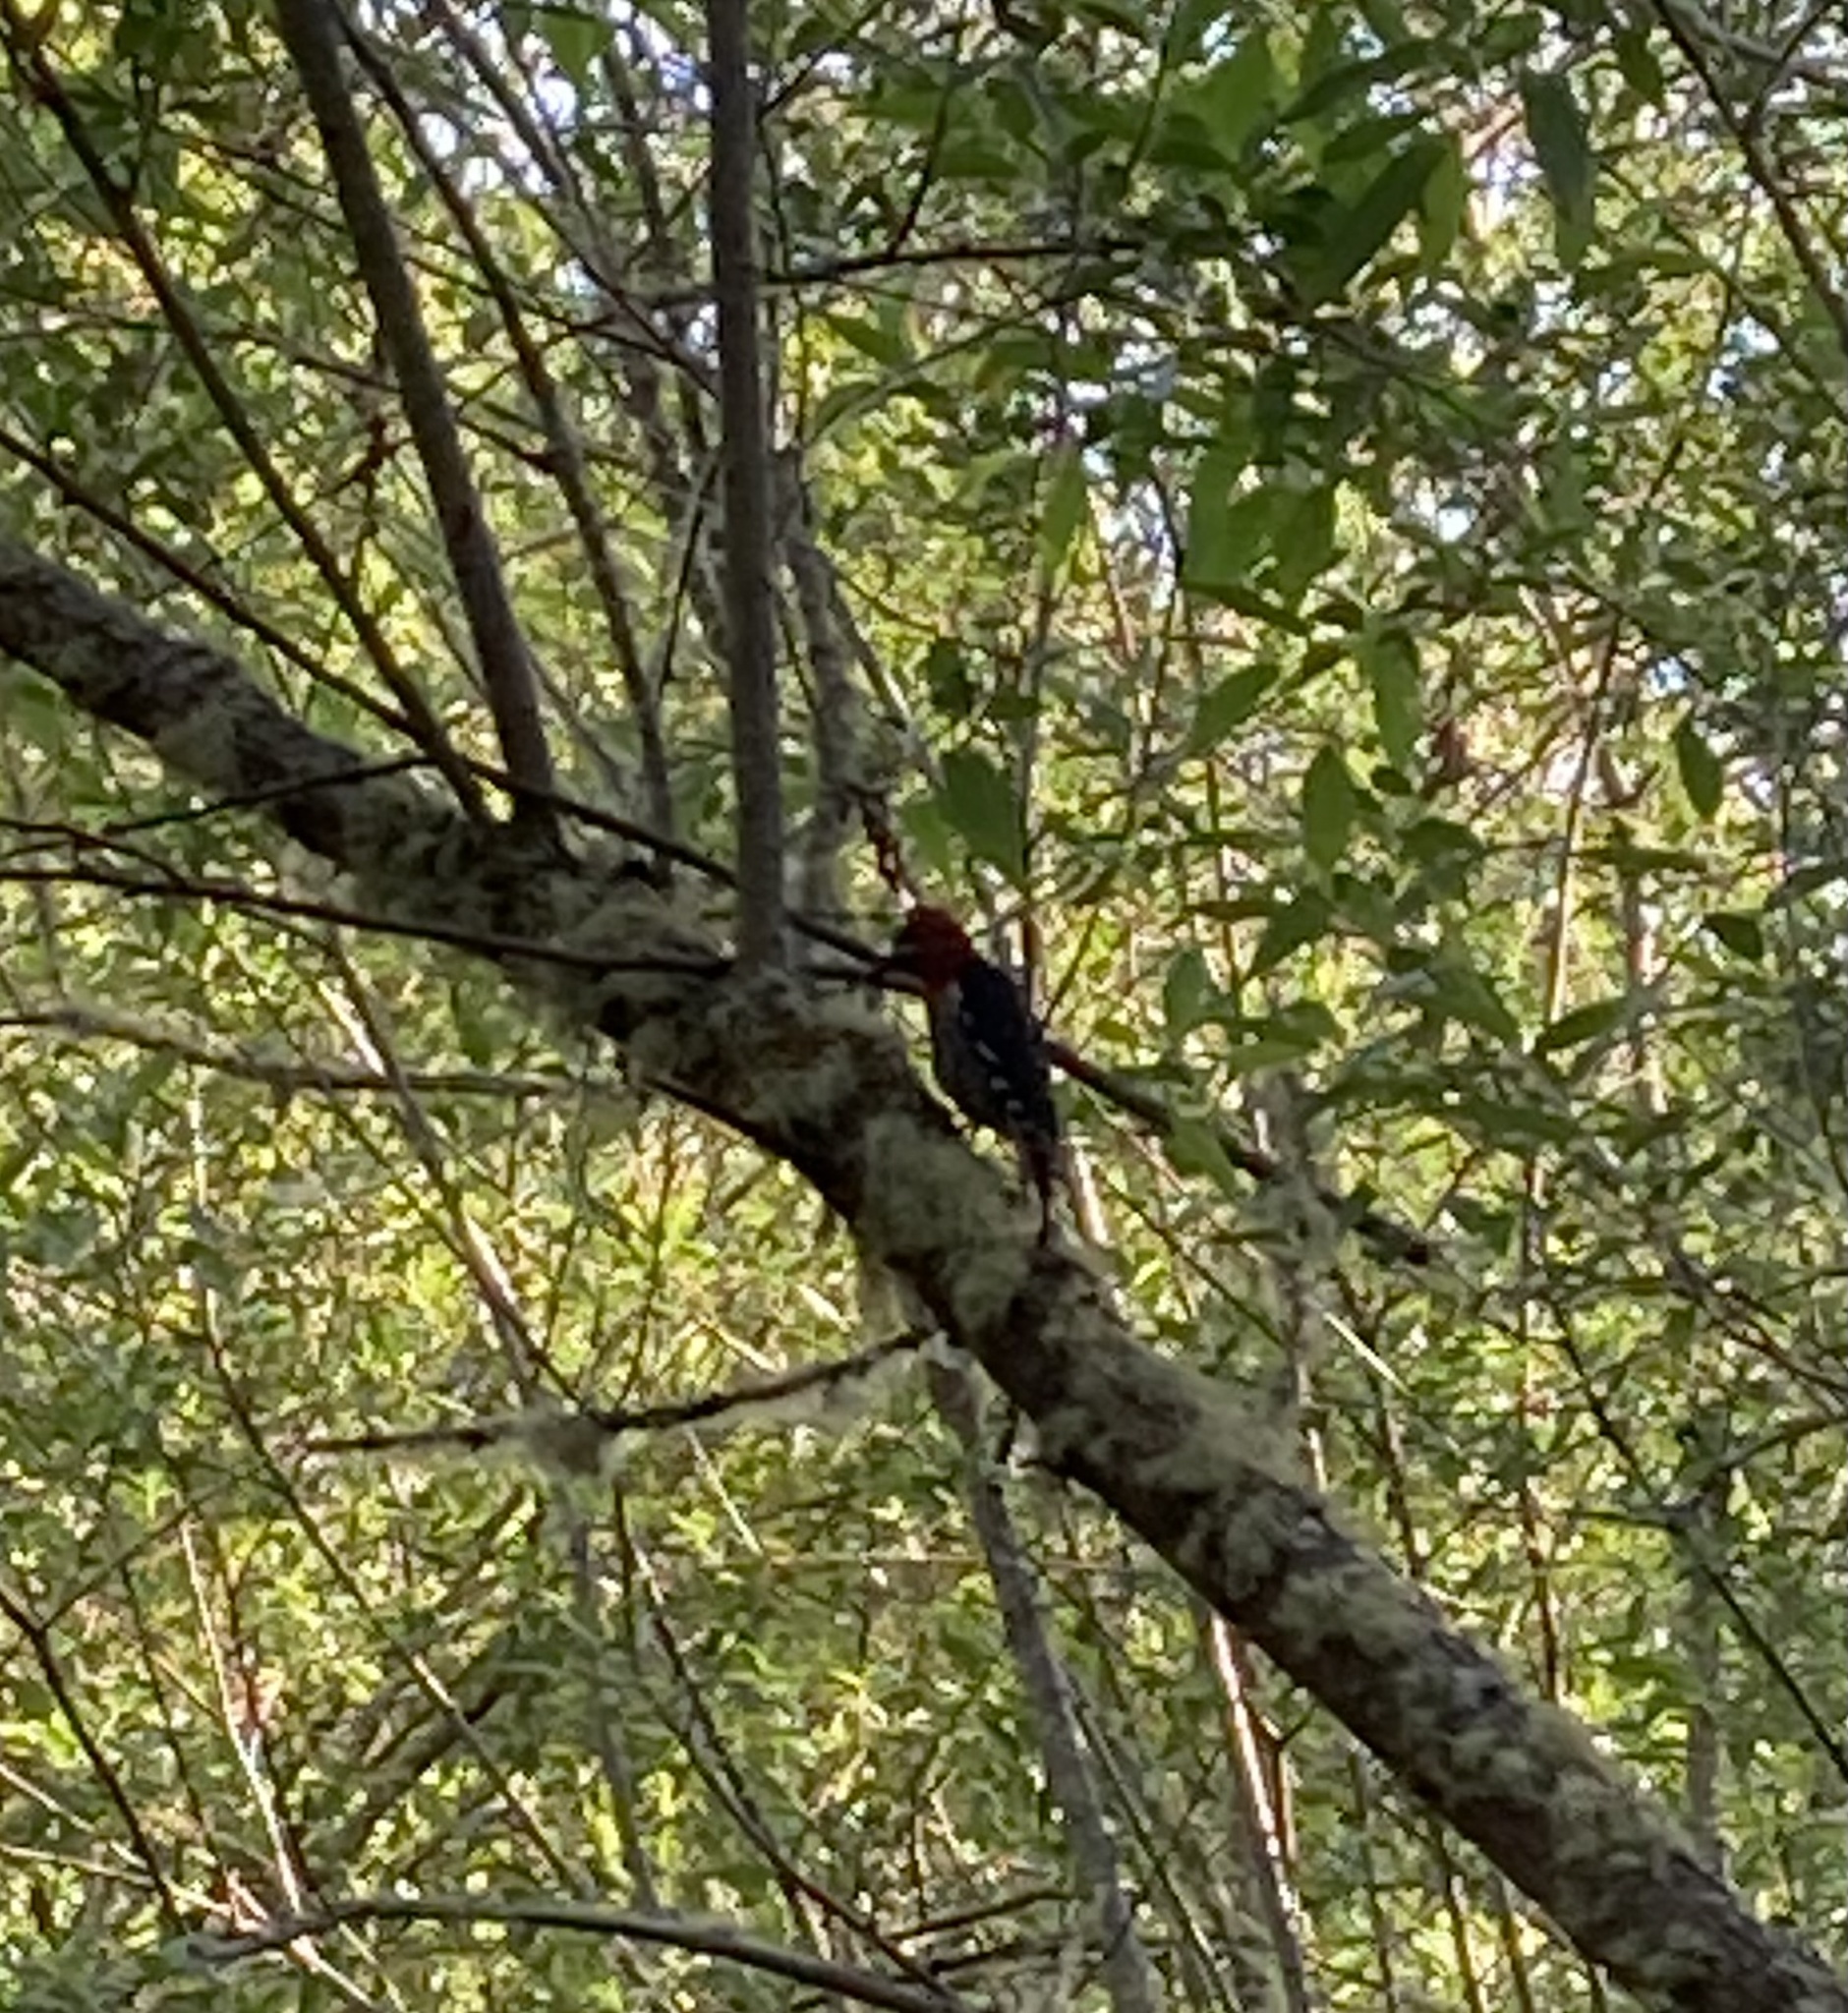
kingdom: Animalia
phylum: Chordata
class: Aves
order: Piciformes
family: Picidae
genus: Sphyrapicus
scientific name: Sphyrapicus ruber
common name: Red-breasted sapsucker
